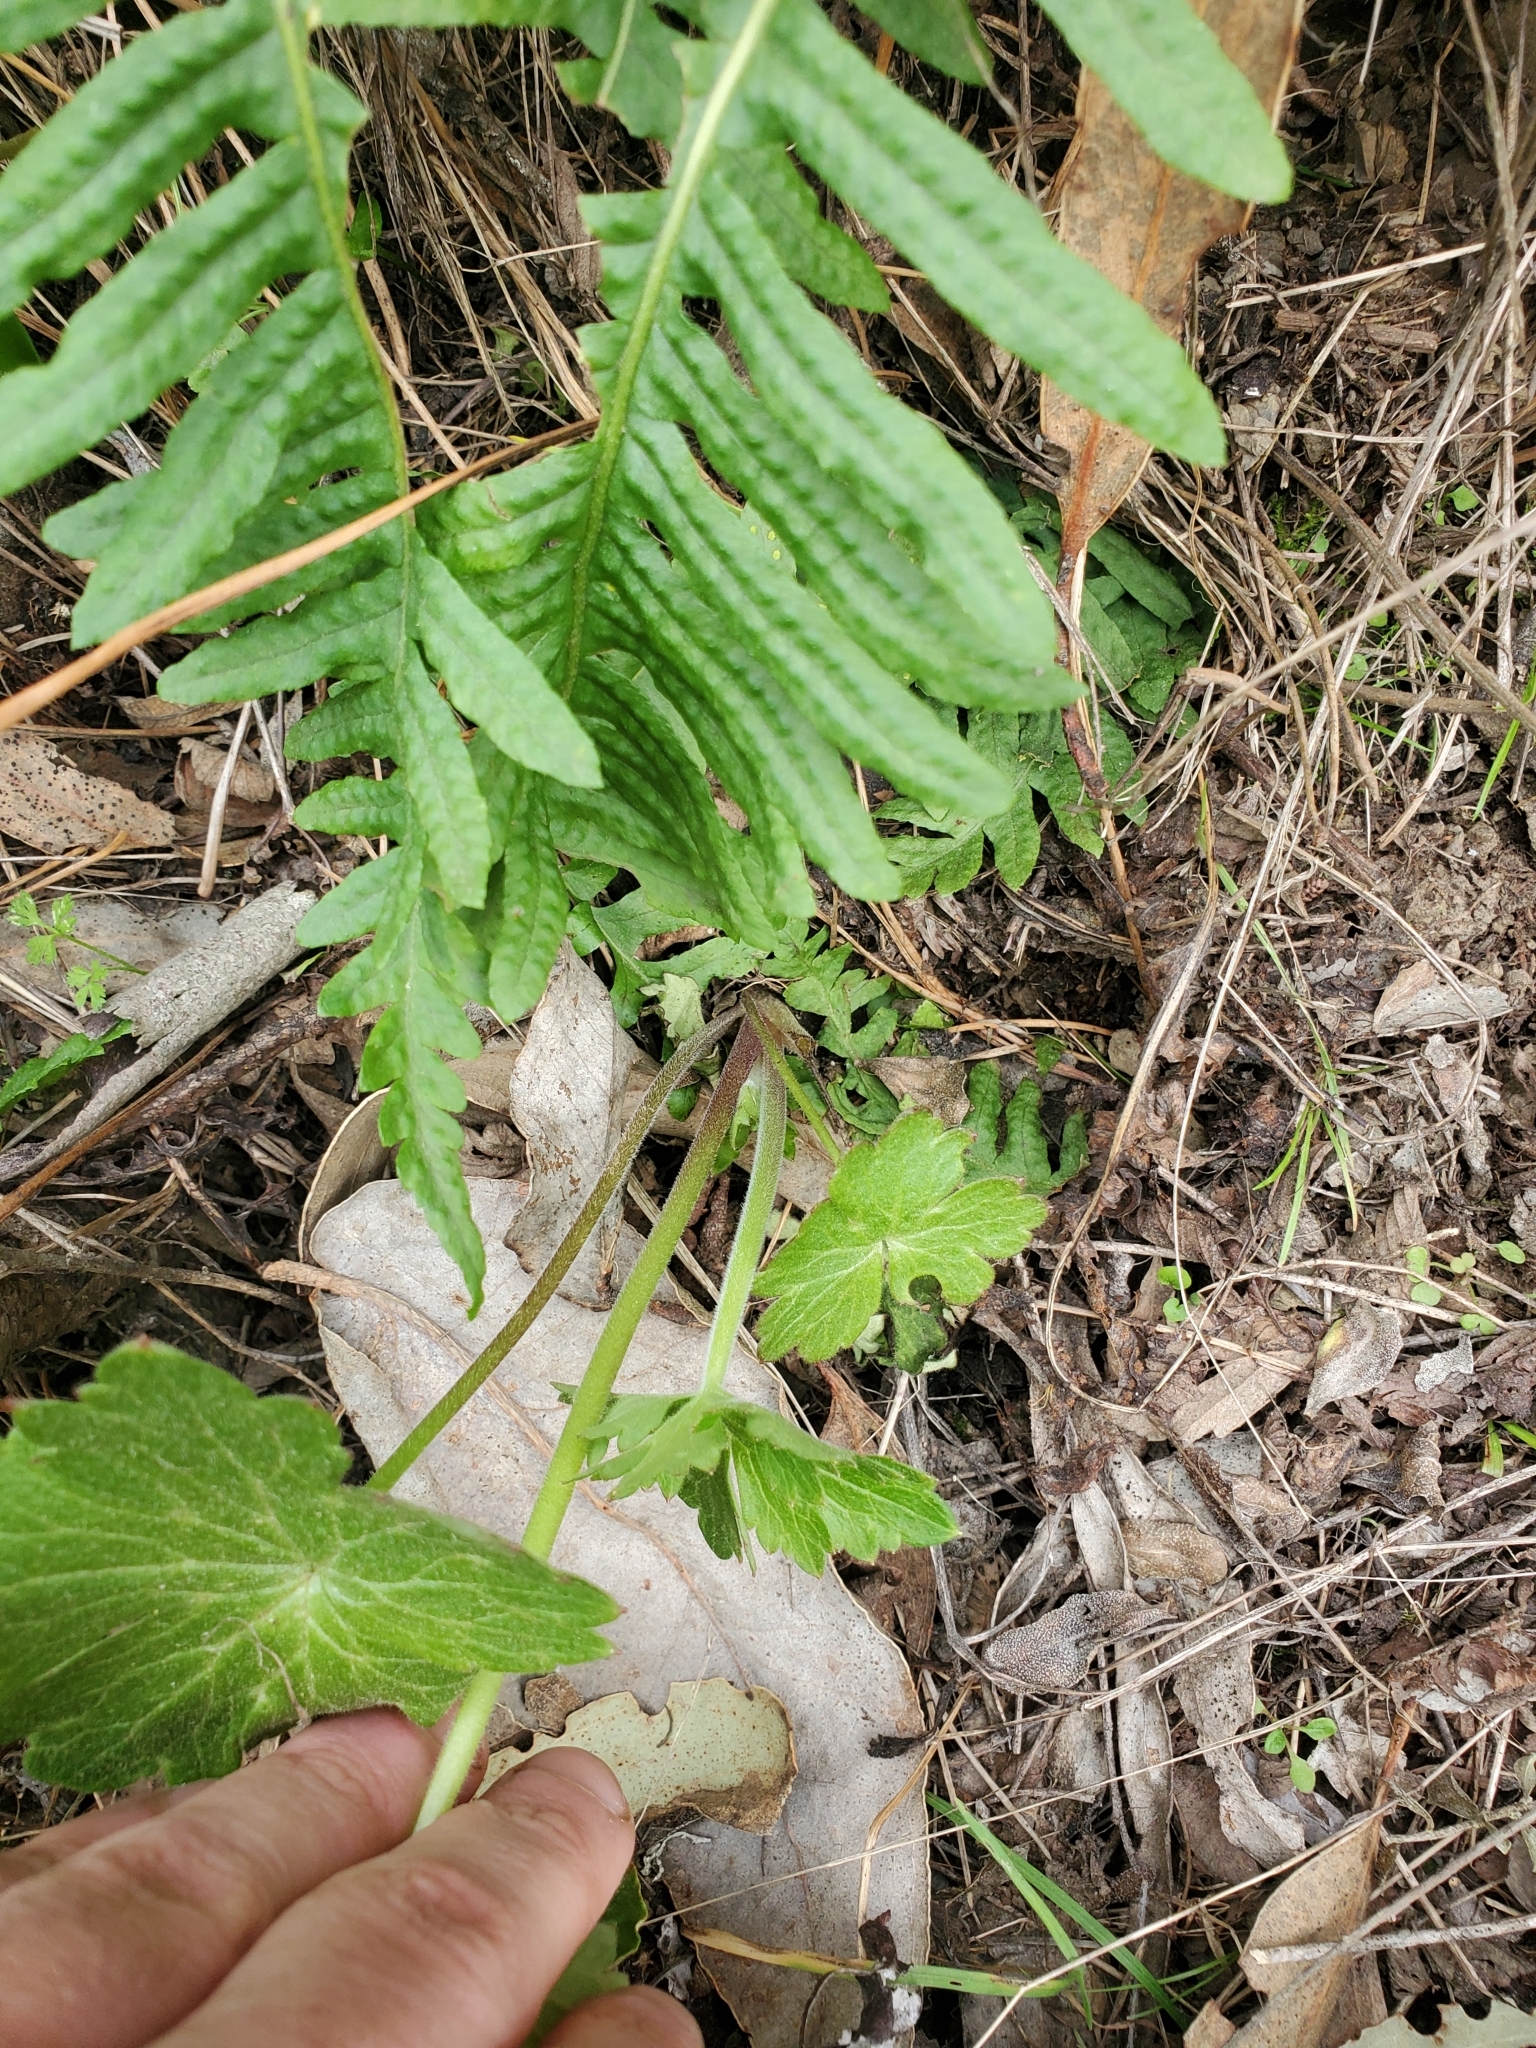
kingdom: Plantae
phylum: Tracheophyta
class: Magnoliopsida
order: Ranunculales
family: Ranunculaceae
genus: Delphinium
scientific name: Delphinium californicum
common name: California larkspur
